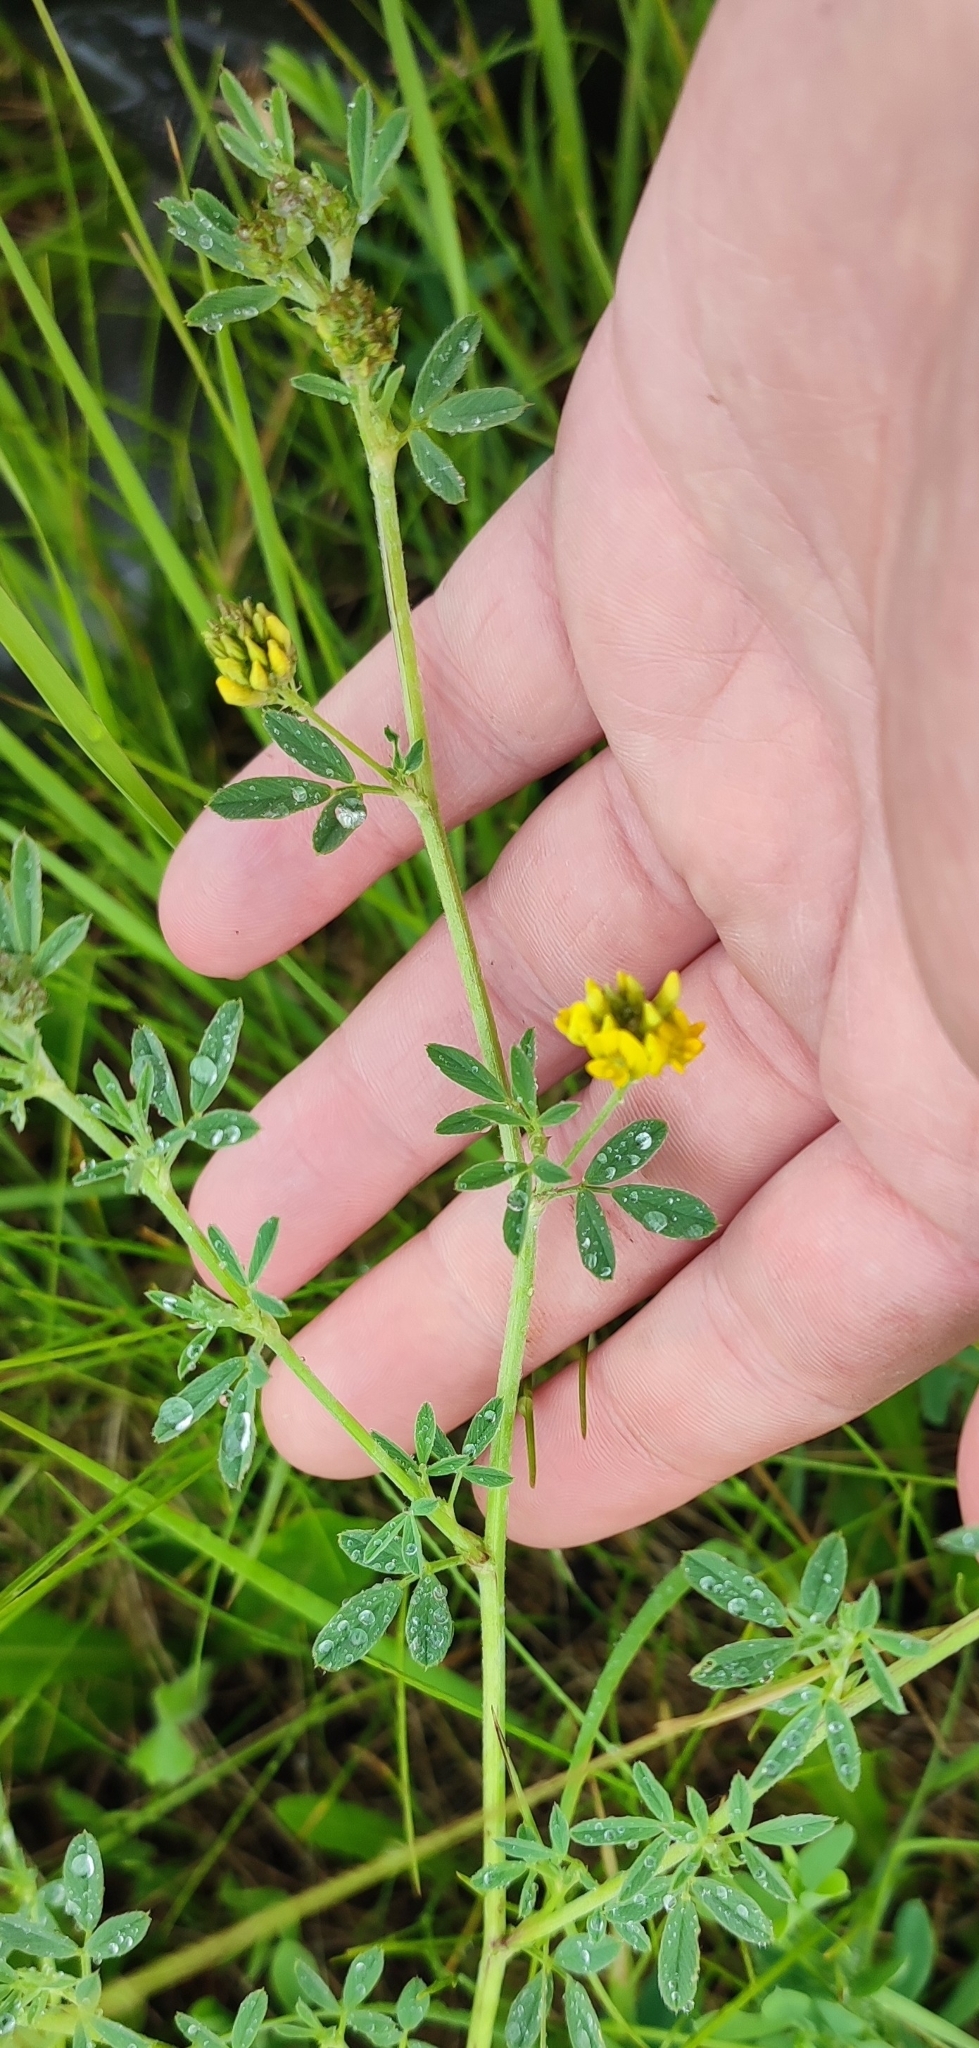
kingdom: Plantae
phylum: Tracheophyta
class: Magnoliopsida
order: Fabales
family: Fabaceae
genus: Medicago
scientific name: Medicago falcata
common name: Sickle medick
